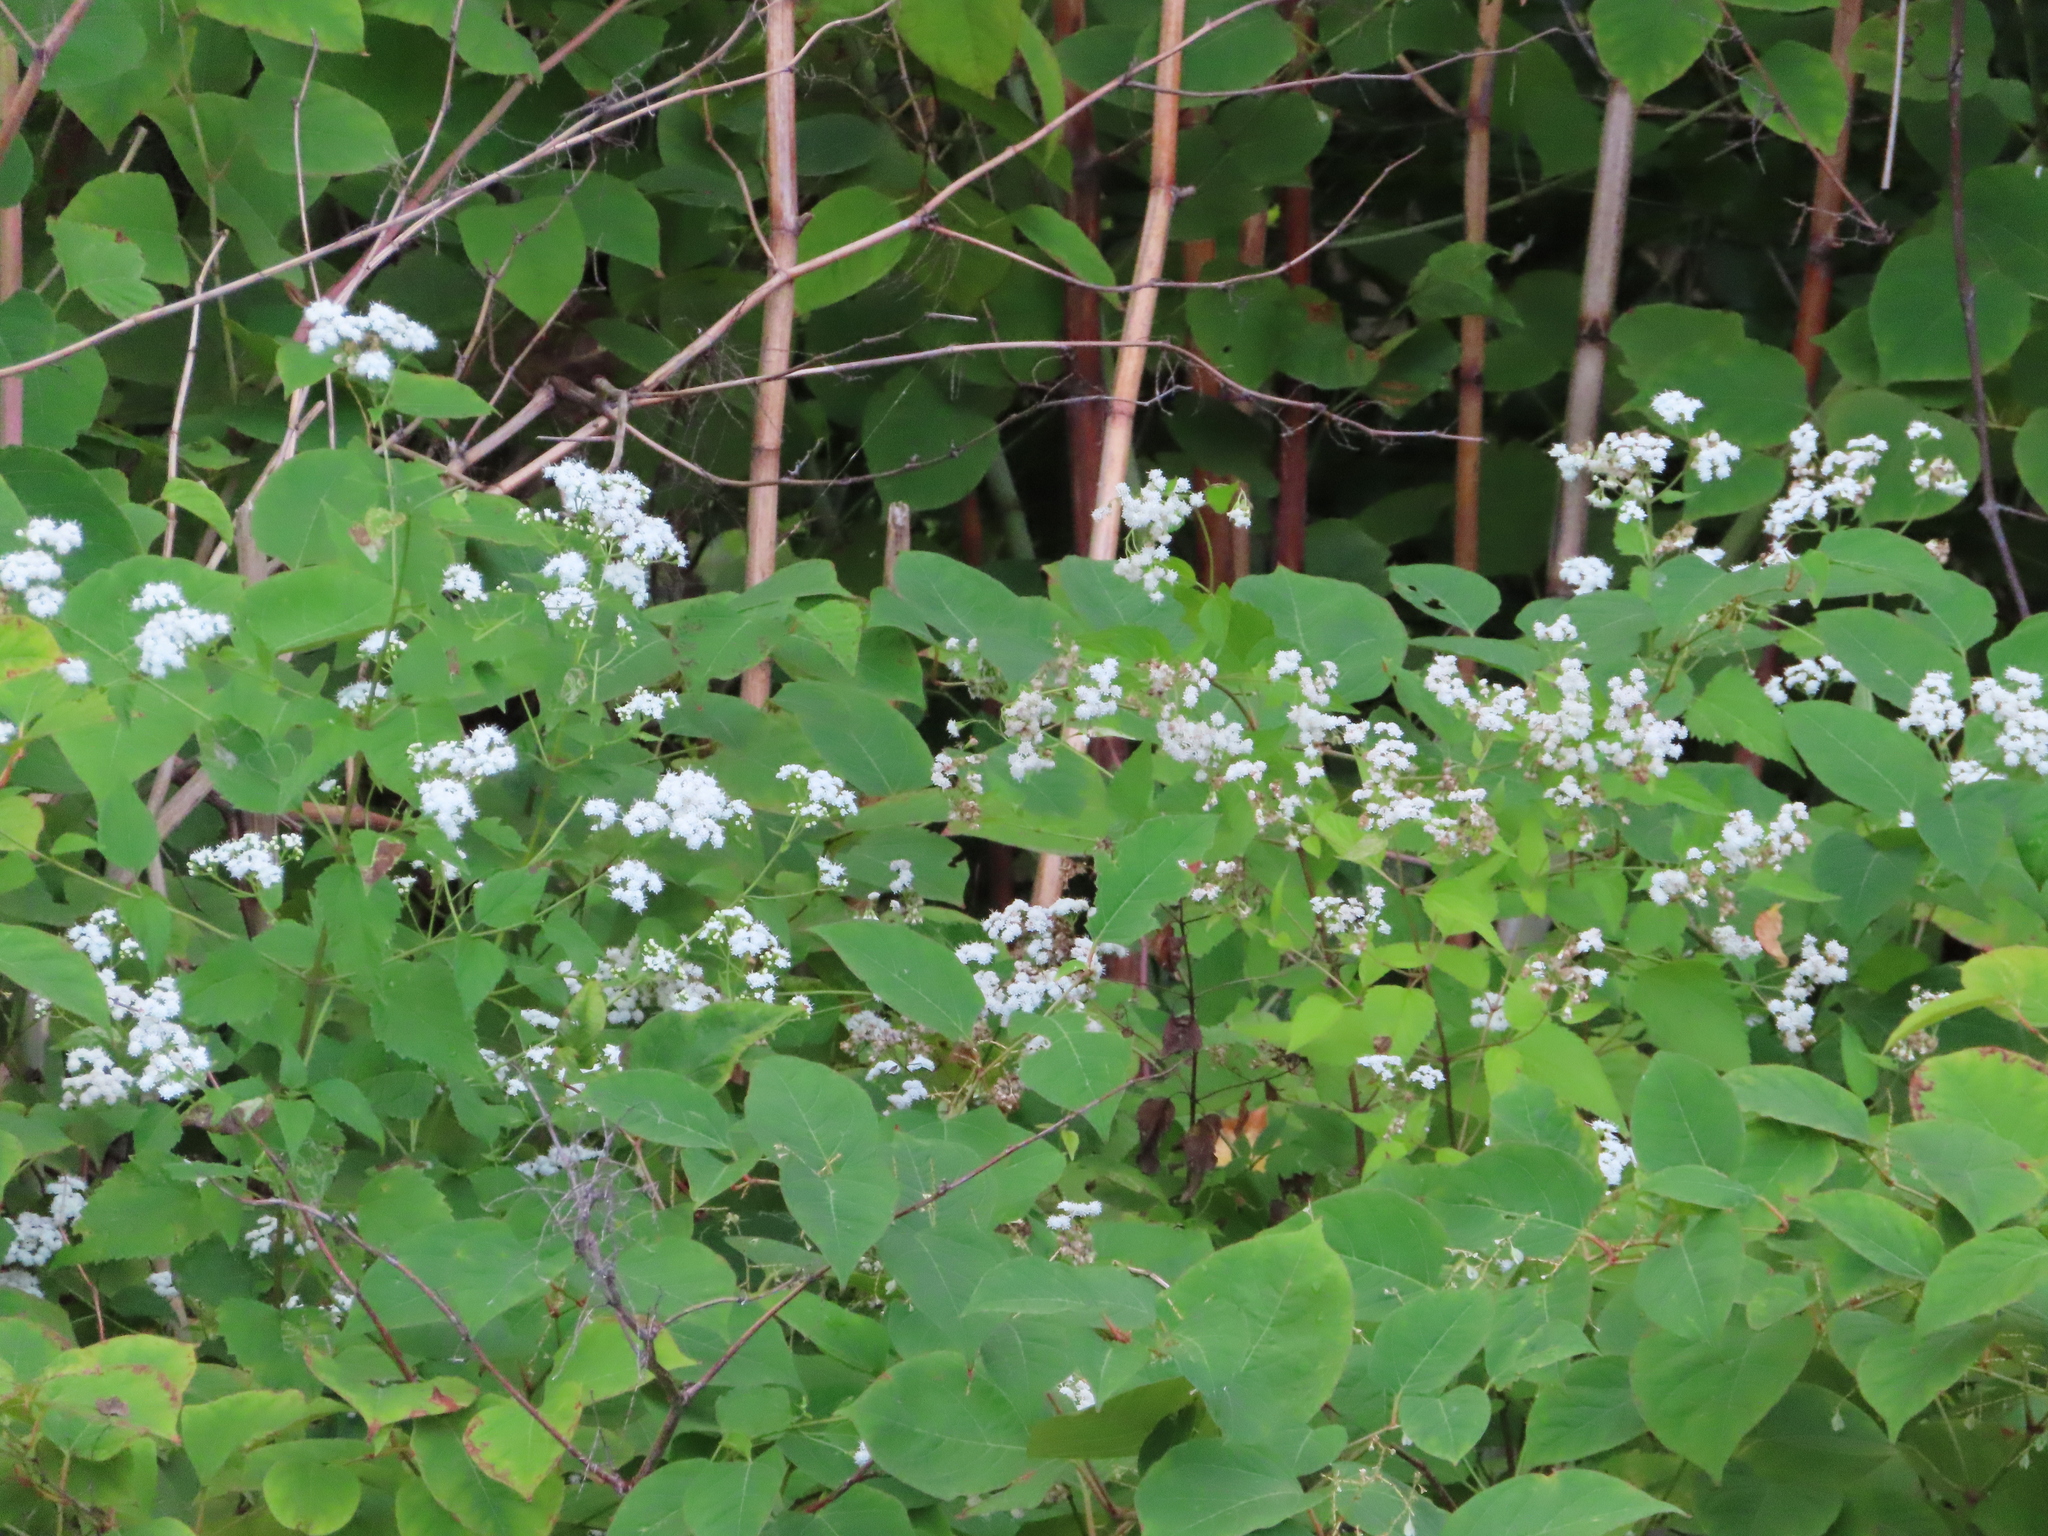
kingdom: Plantae
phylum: Tracheophyta
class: Magnoliopsida
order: Asterales
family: Asteraceae
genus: Ageratina
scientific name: Ageratina altissima
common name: White snakeroot
